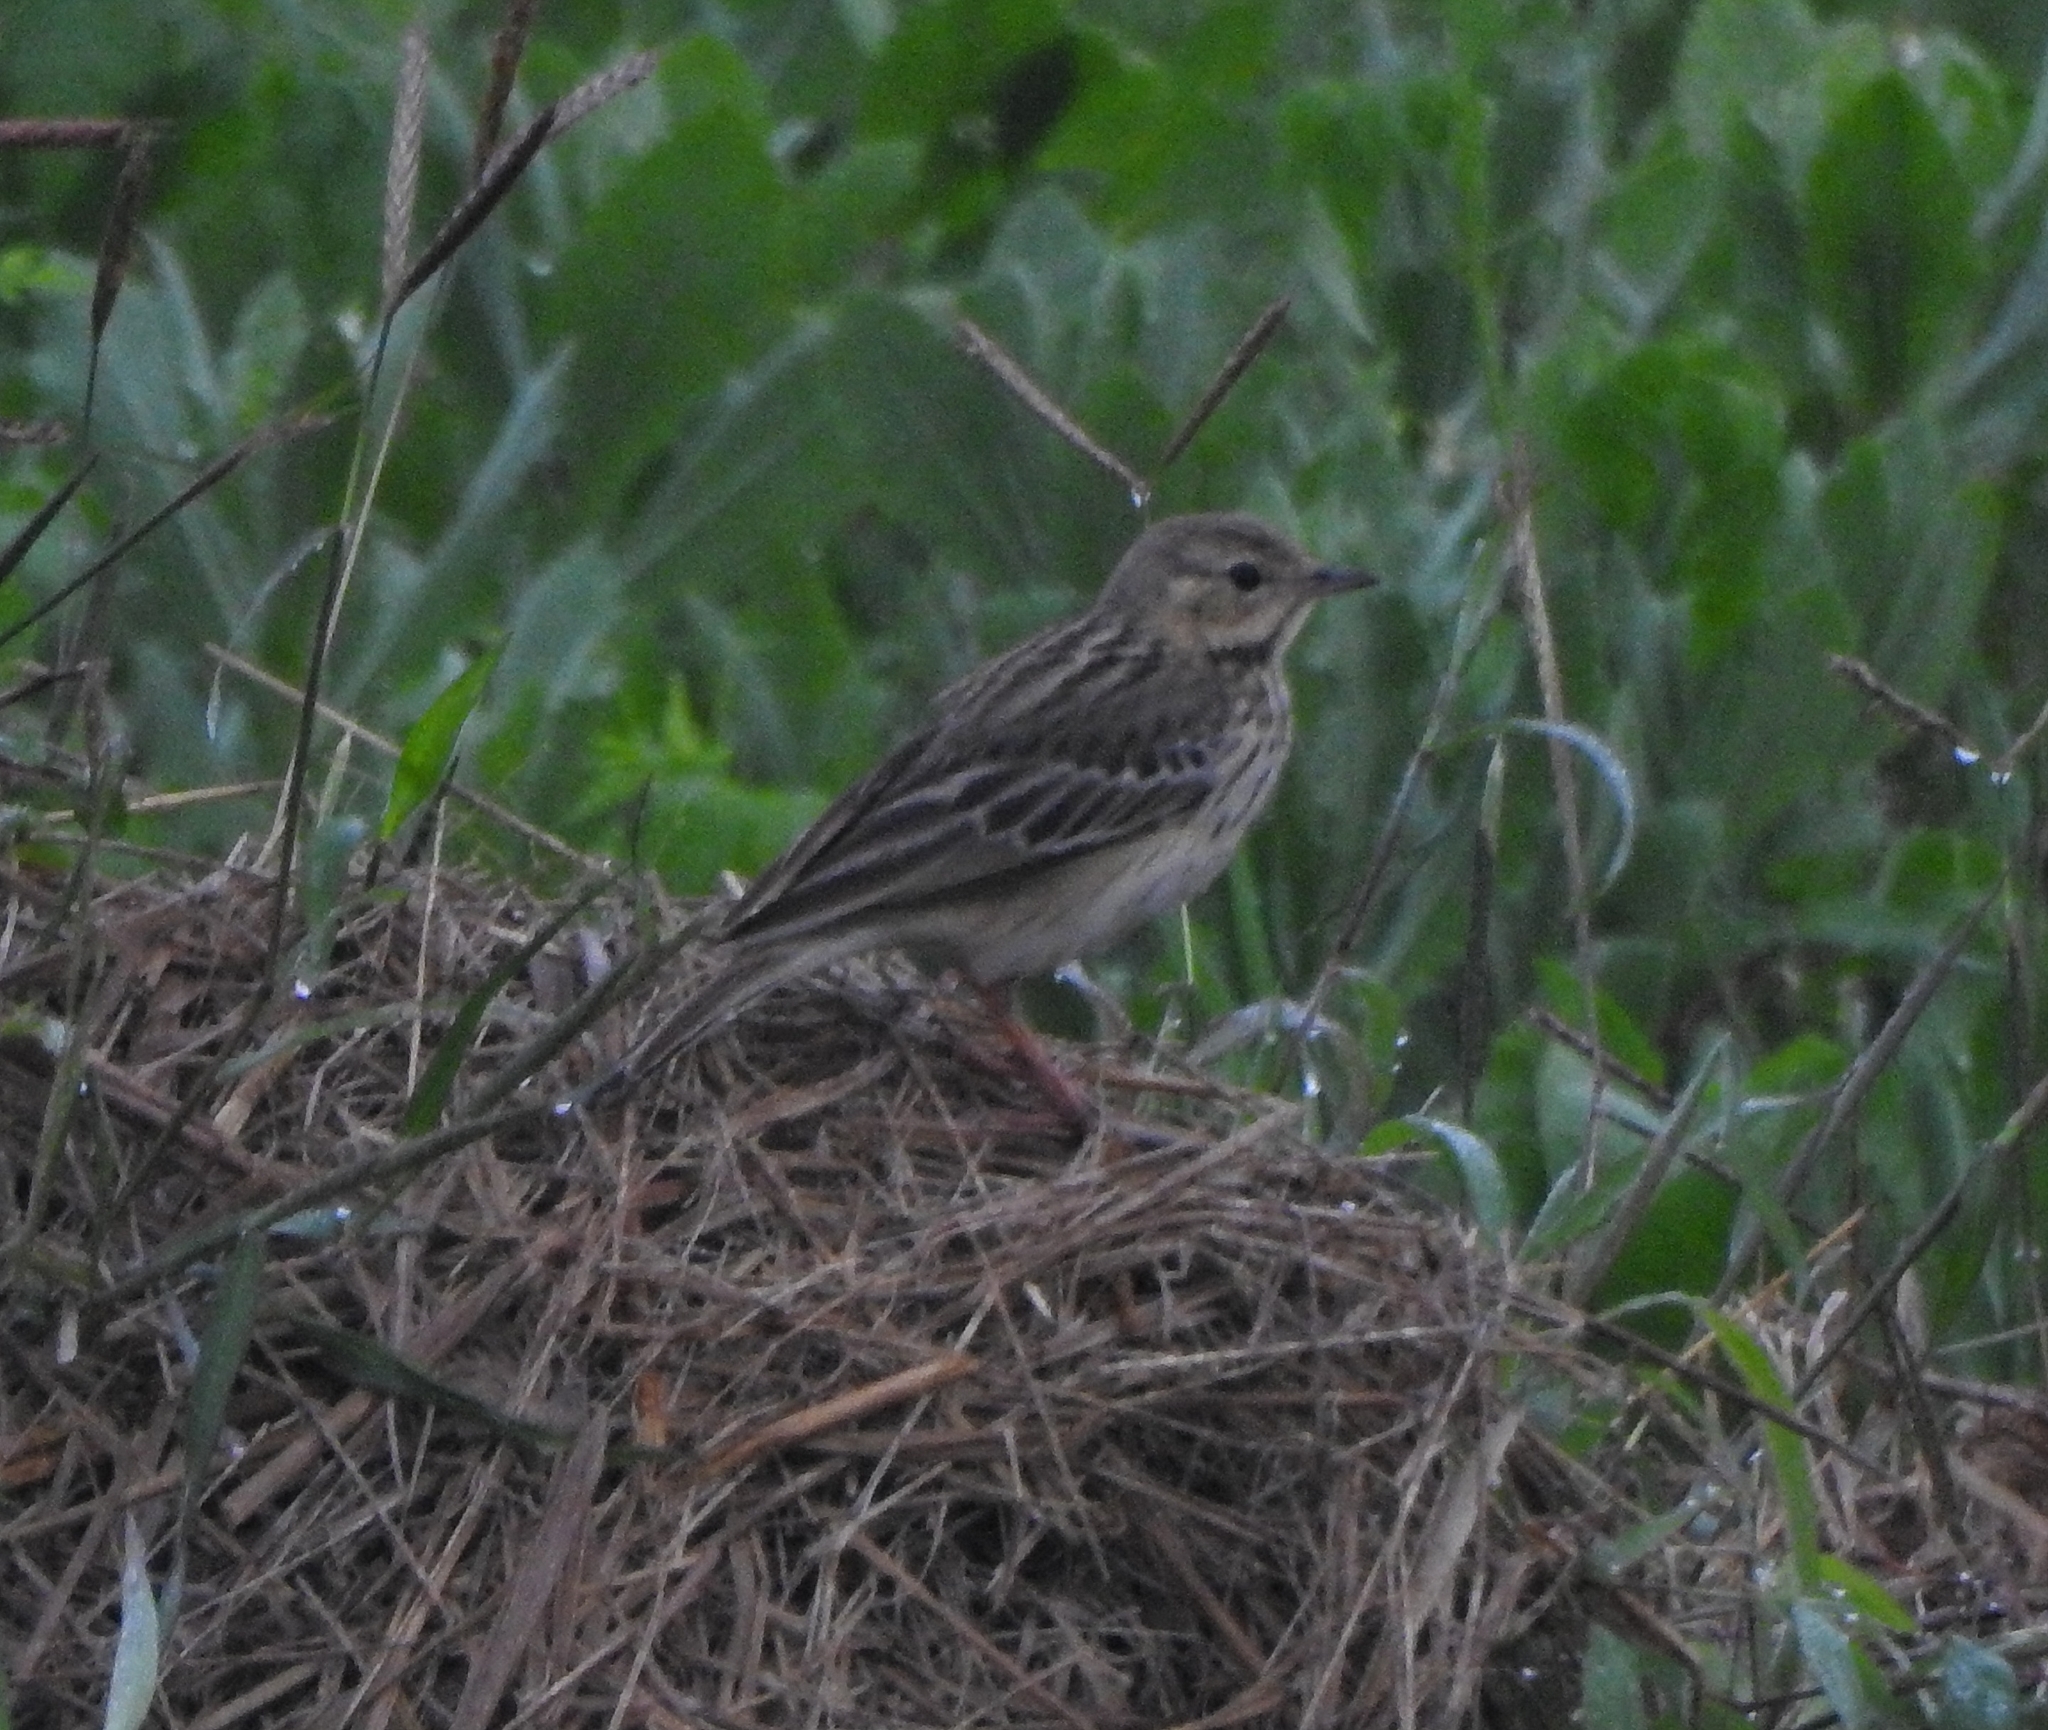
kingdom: Animalia
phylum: Chordata
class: Aves
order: Passeriformes
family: Motacillidae
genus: Anthus
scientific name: Anthus trivialis
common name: Tree pipit
